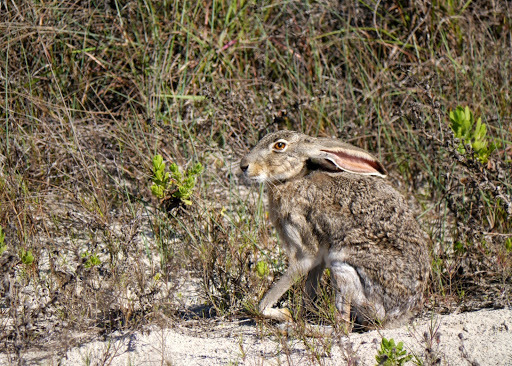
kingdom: Animalia
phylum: Chordata
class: Mammalia
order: Lagomorpha
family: Leporidae
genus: Lepus
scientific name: Lepus californicus
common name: Black-tailed jackrabbit
